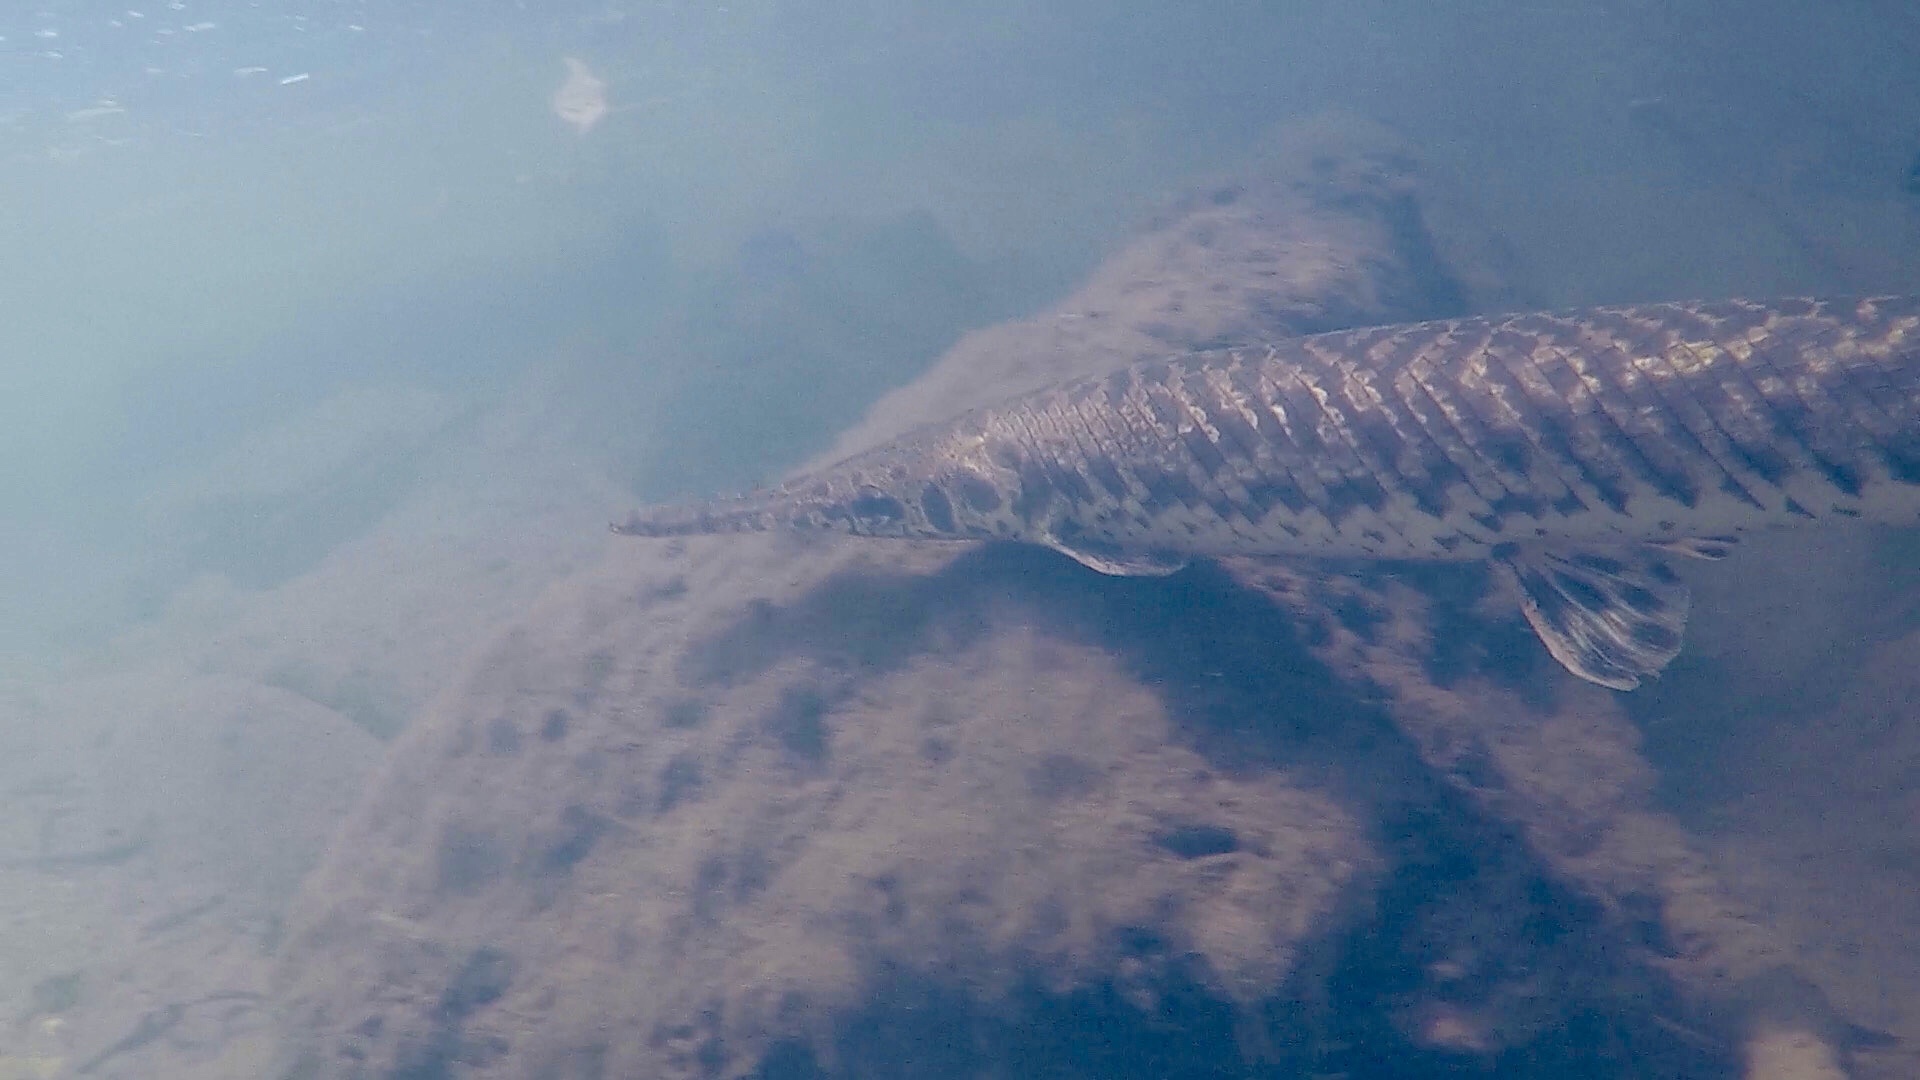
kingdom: Animalia
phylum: Chordata
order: Lepisosteiformes
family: Lepisosteidae
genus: Lepisosteus
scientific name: Lepisosteus oculatus
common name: Spotted gar
